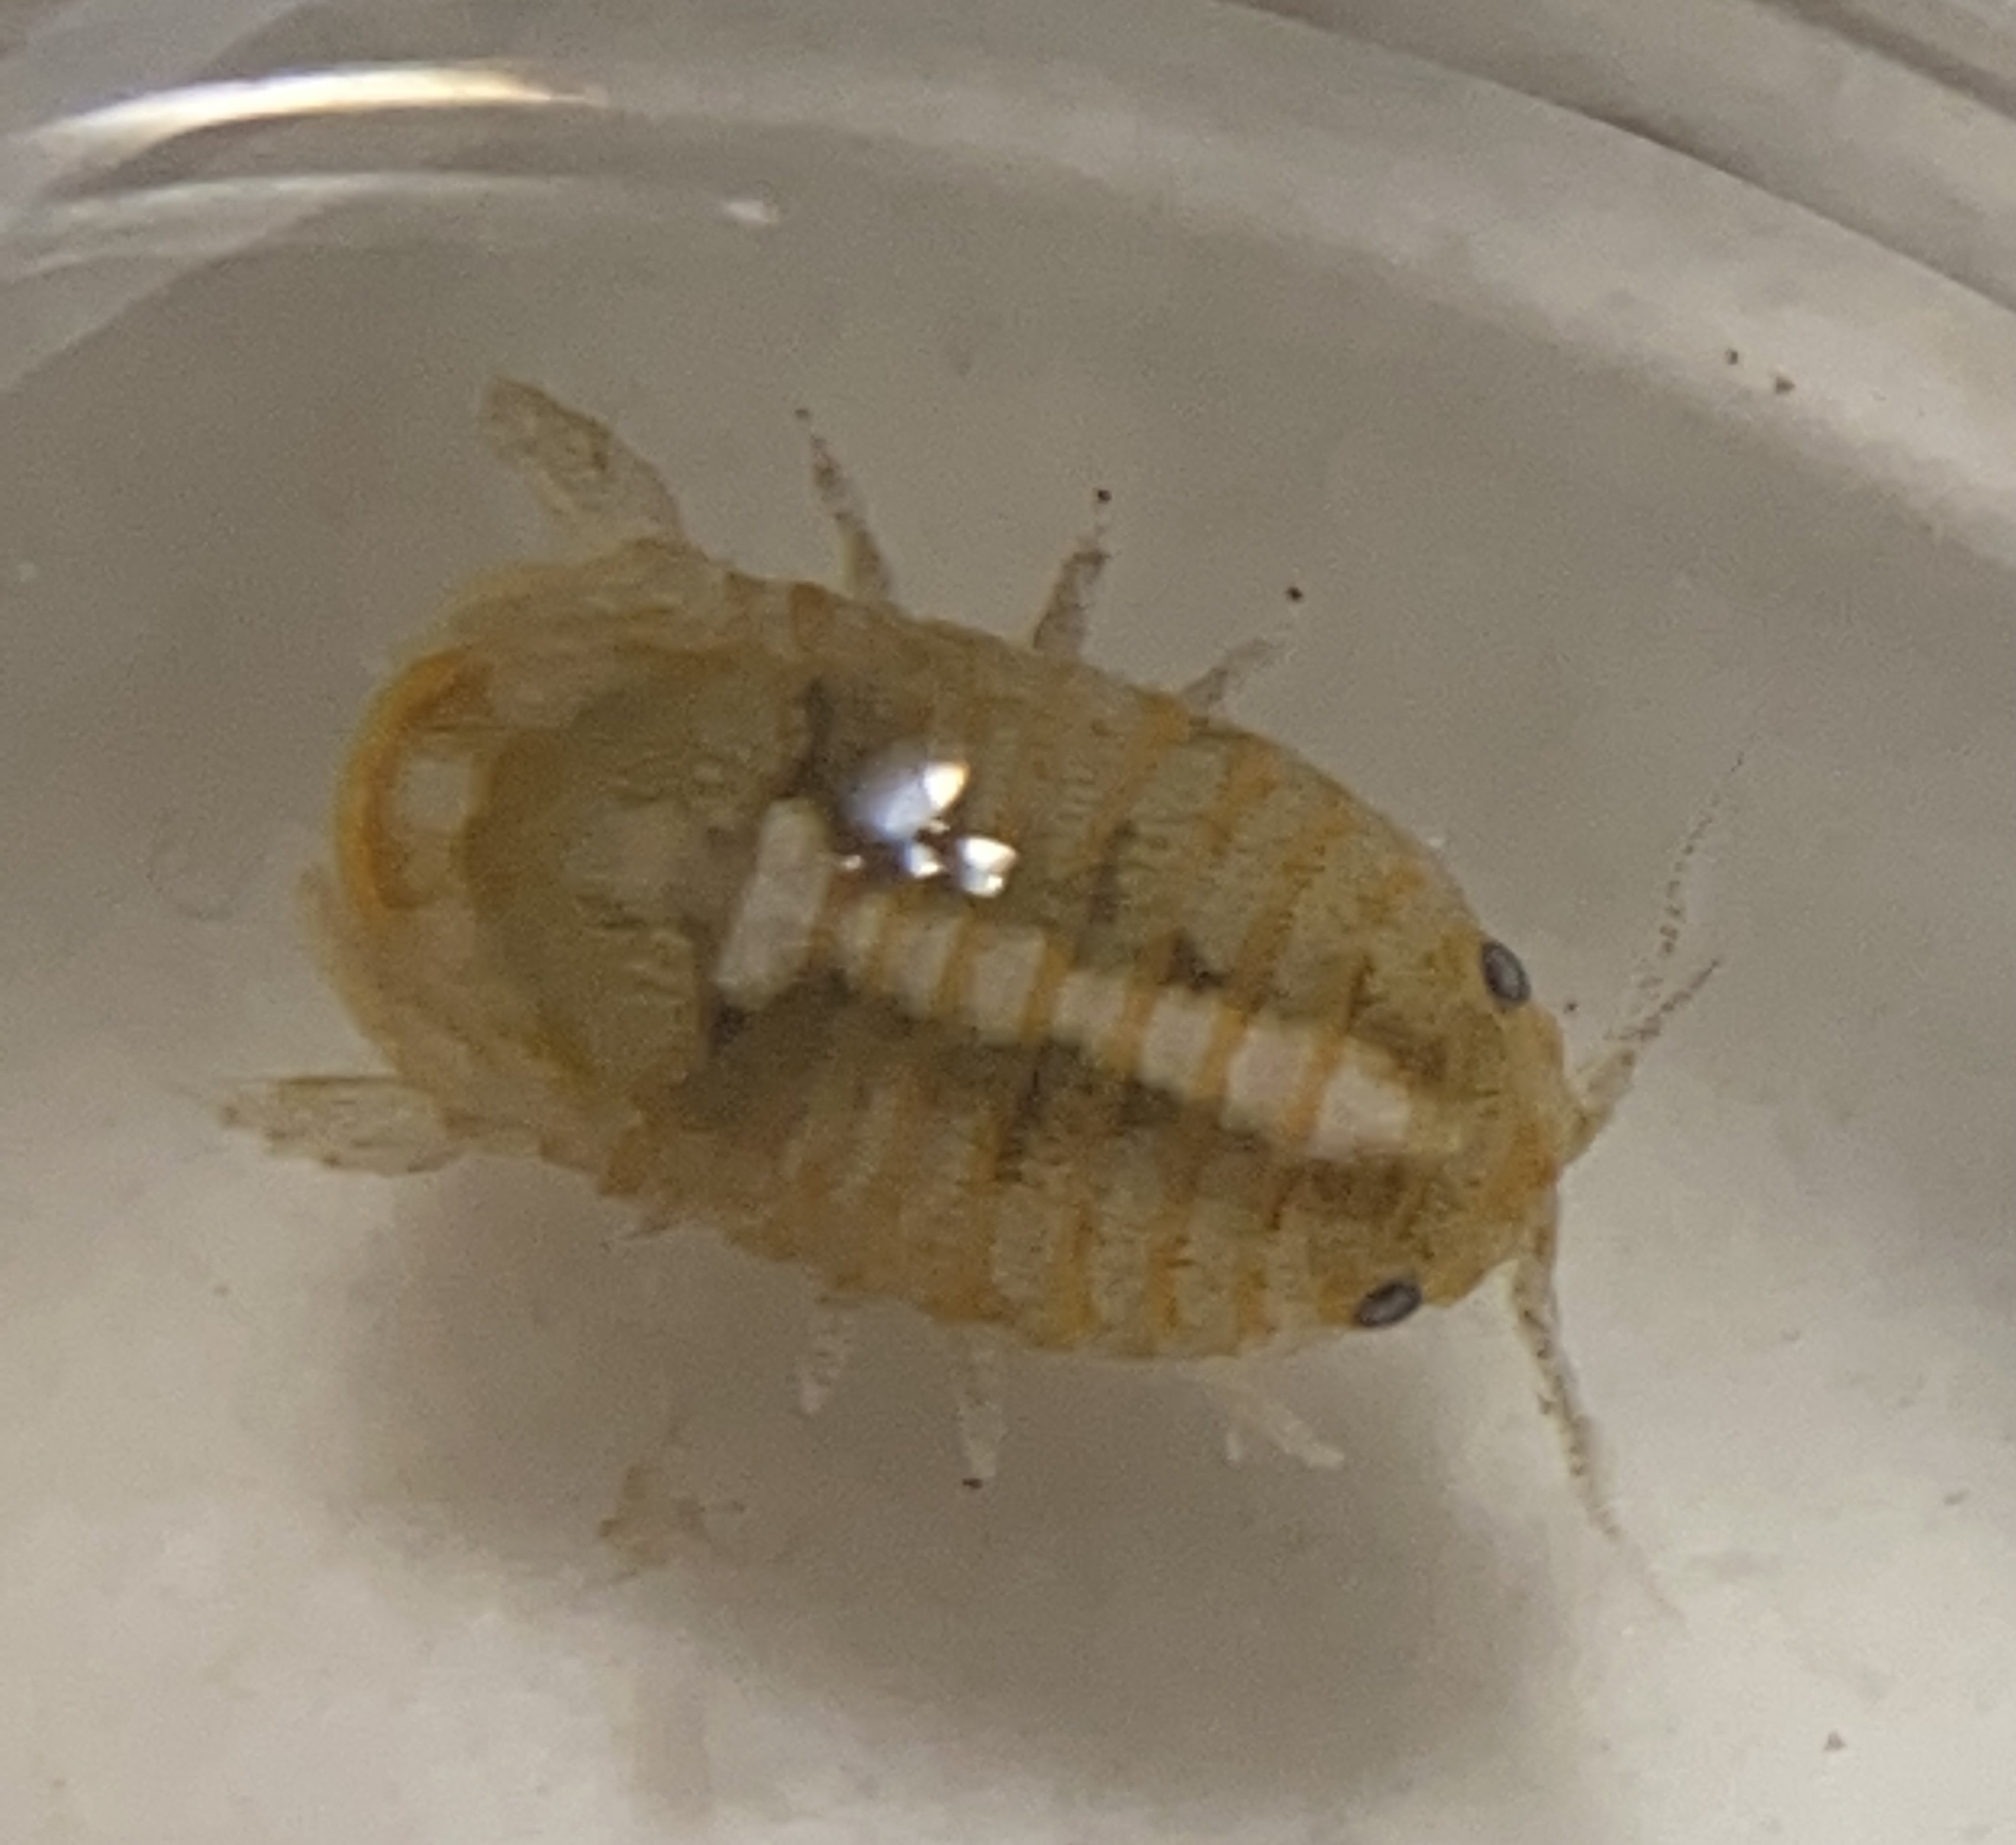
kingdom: Animalia
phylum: Arthropoda
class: Malacostraca
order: Isopoda
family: Sphaeromatidae
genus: Sphaeroma
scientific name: Sphaeroma quadridentatum
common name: Sea pill bug
